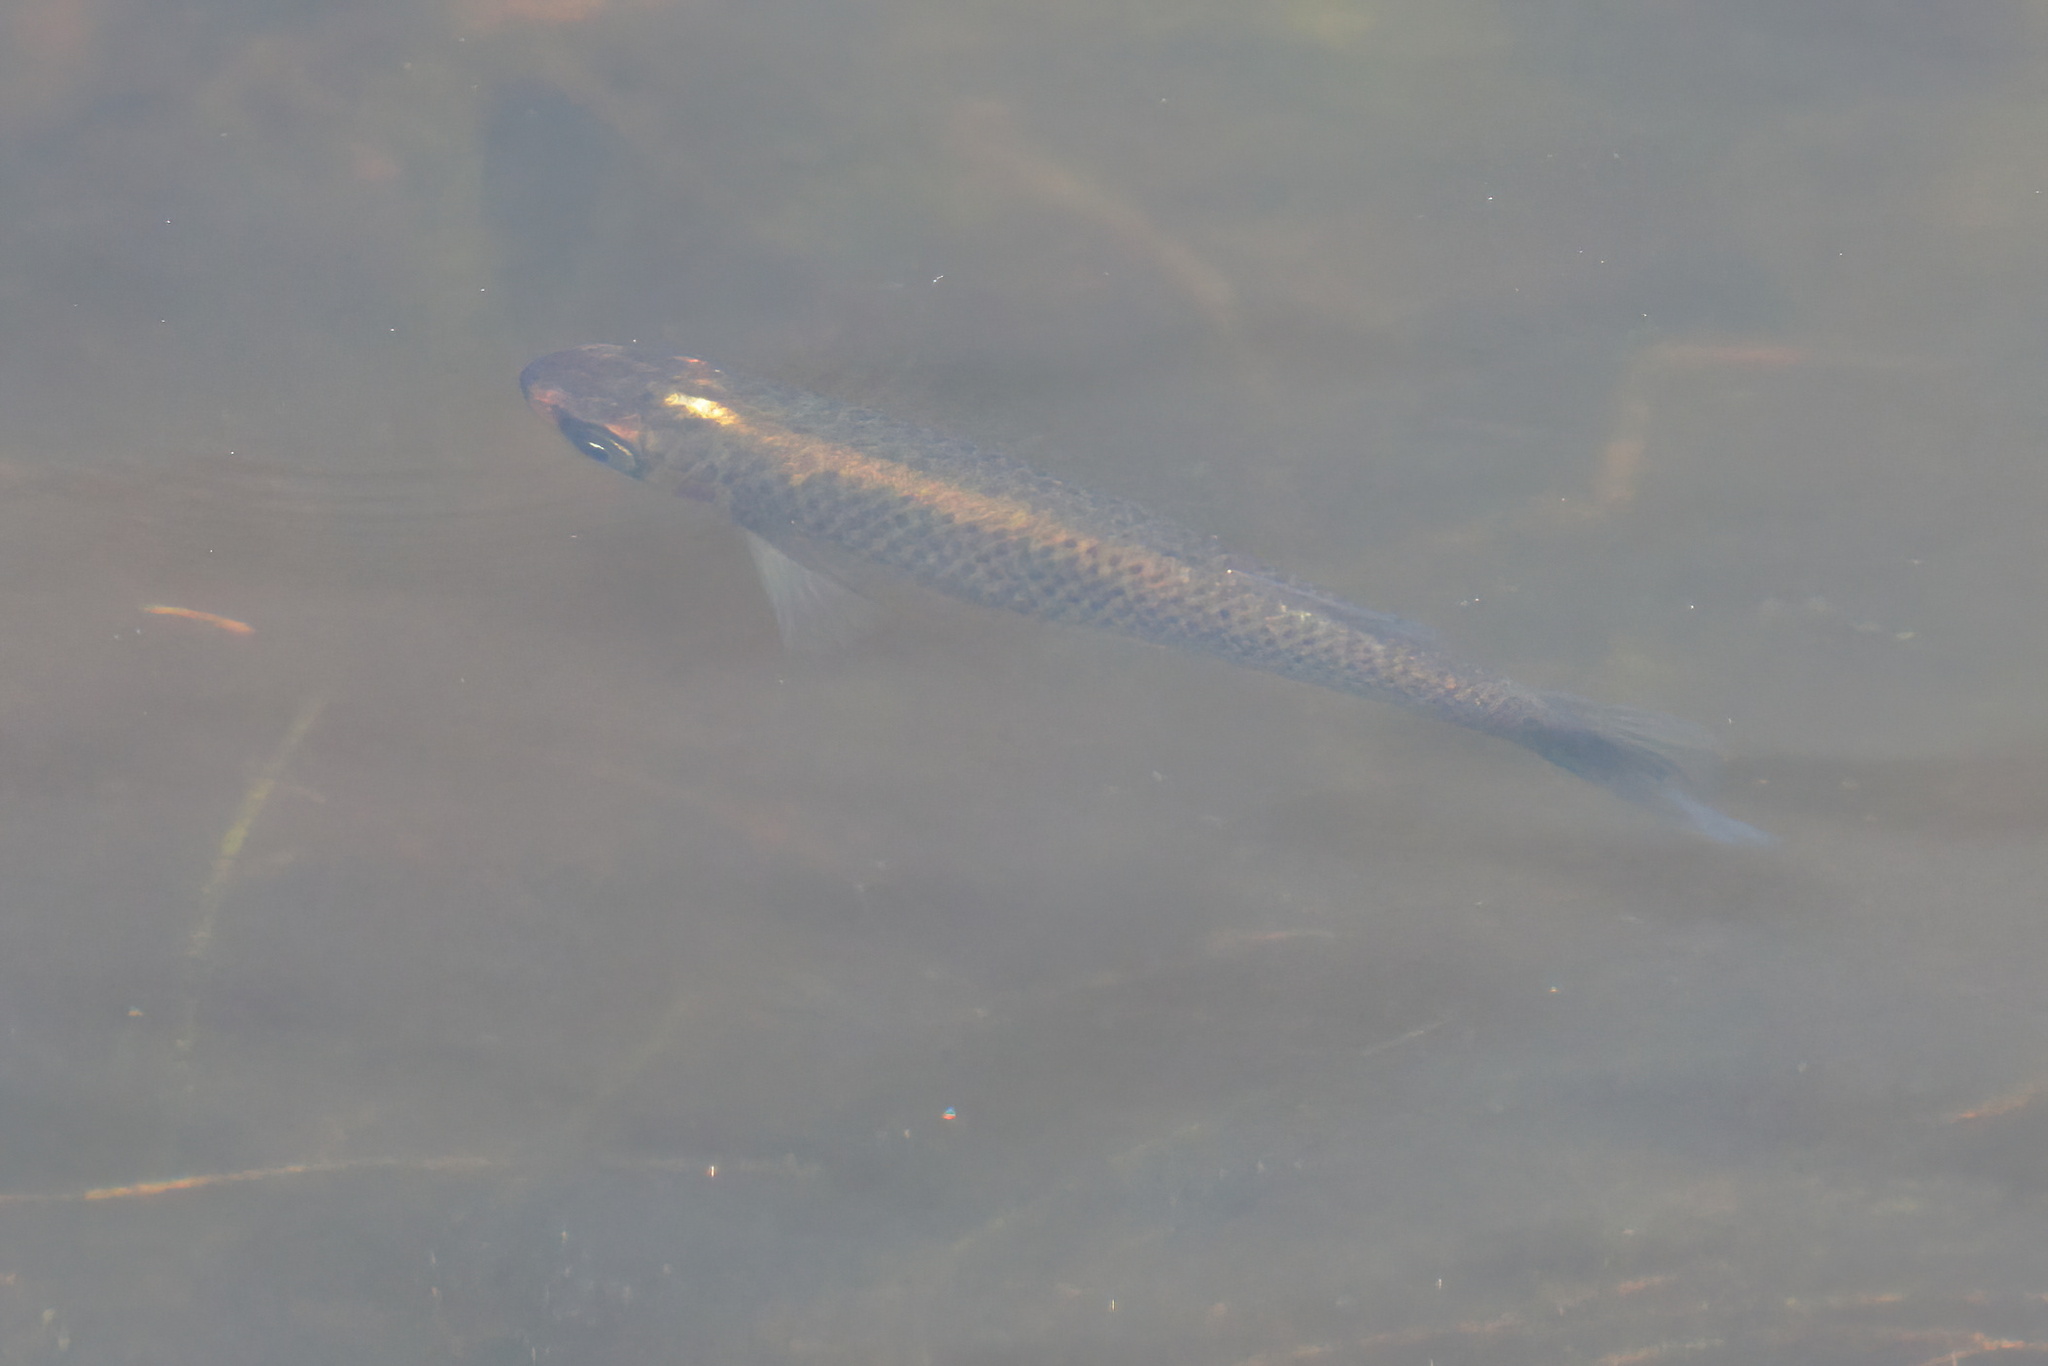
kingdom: Animalia
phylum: Chordata
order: Cyprinodontiformes
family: Fundulidae
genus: Fundulus
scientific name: Fundulus nottii
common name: Bayou topminnow
